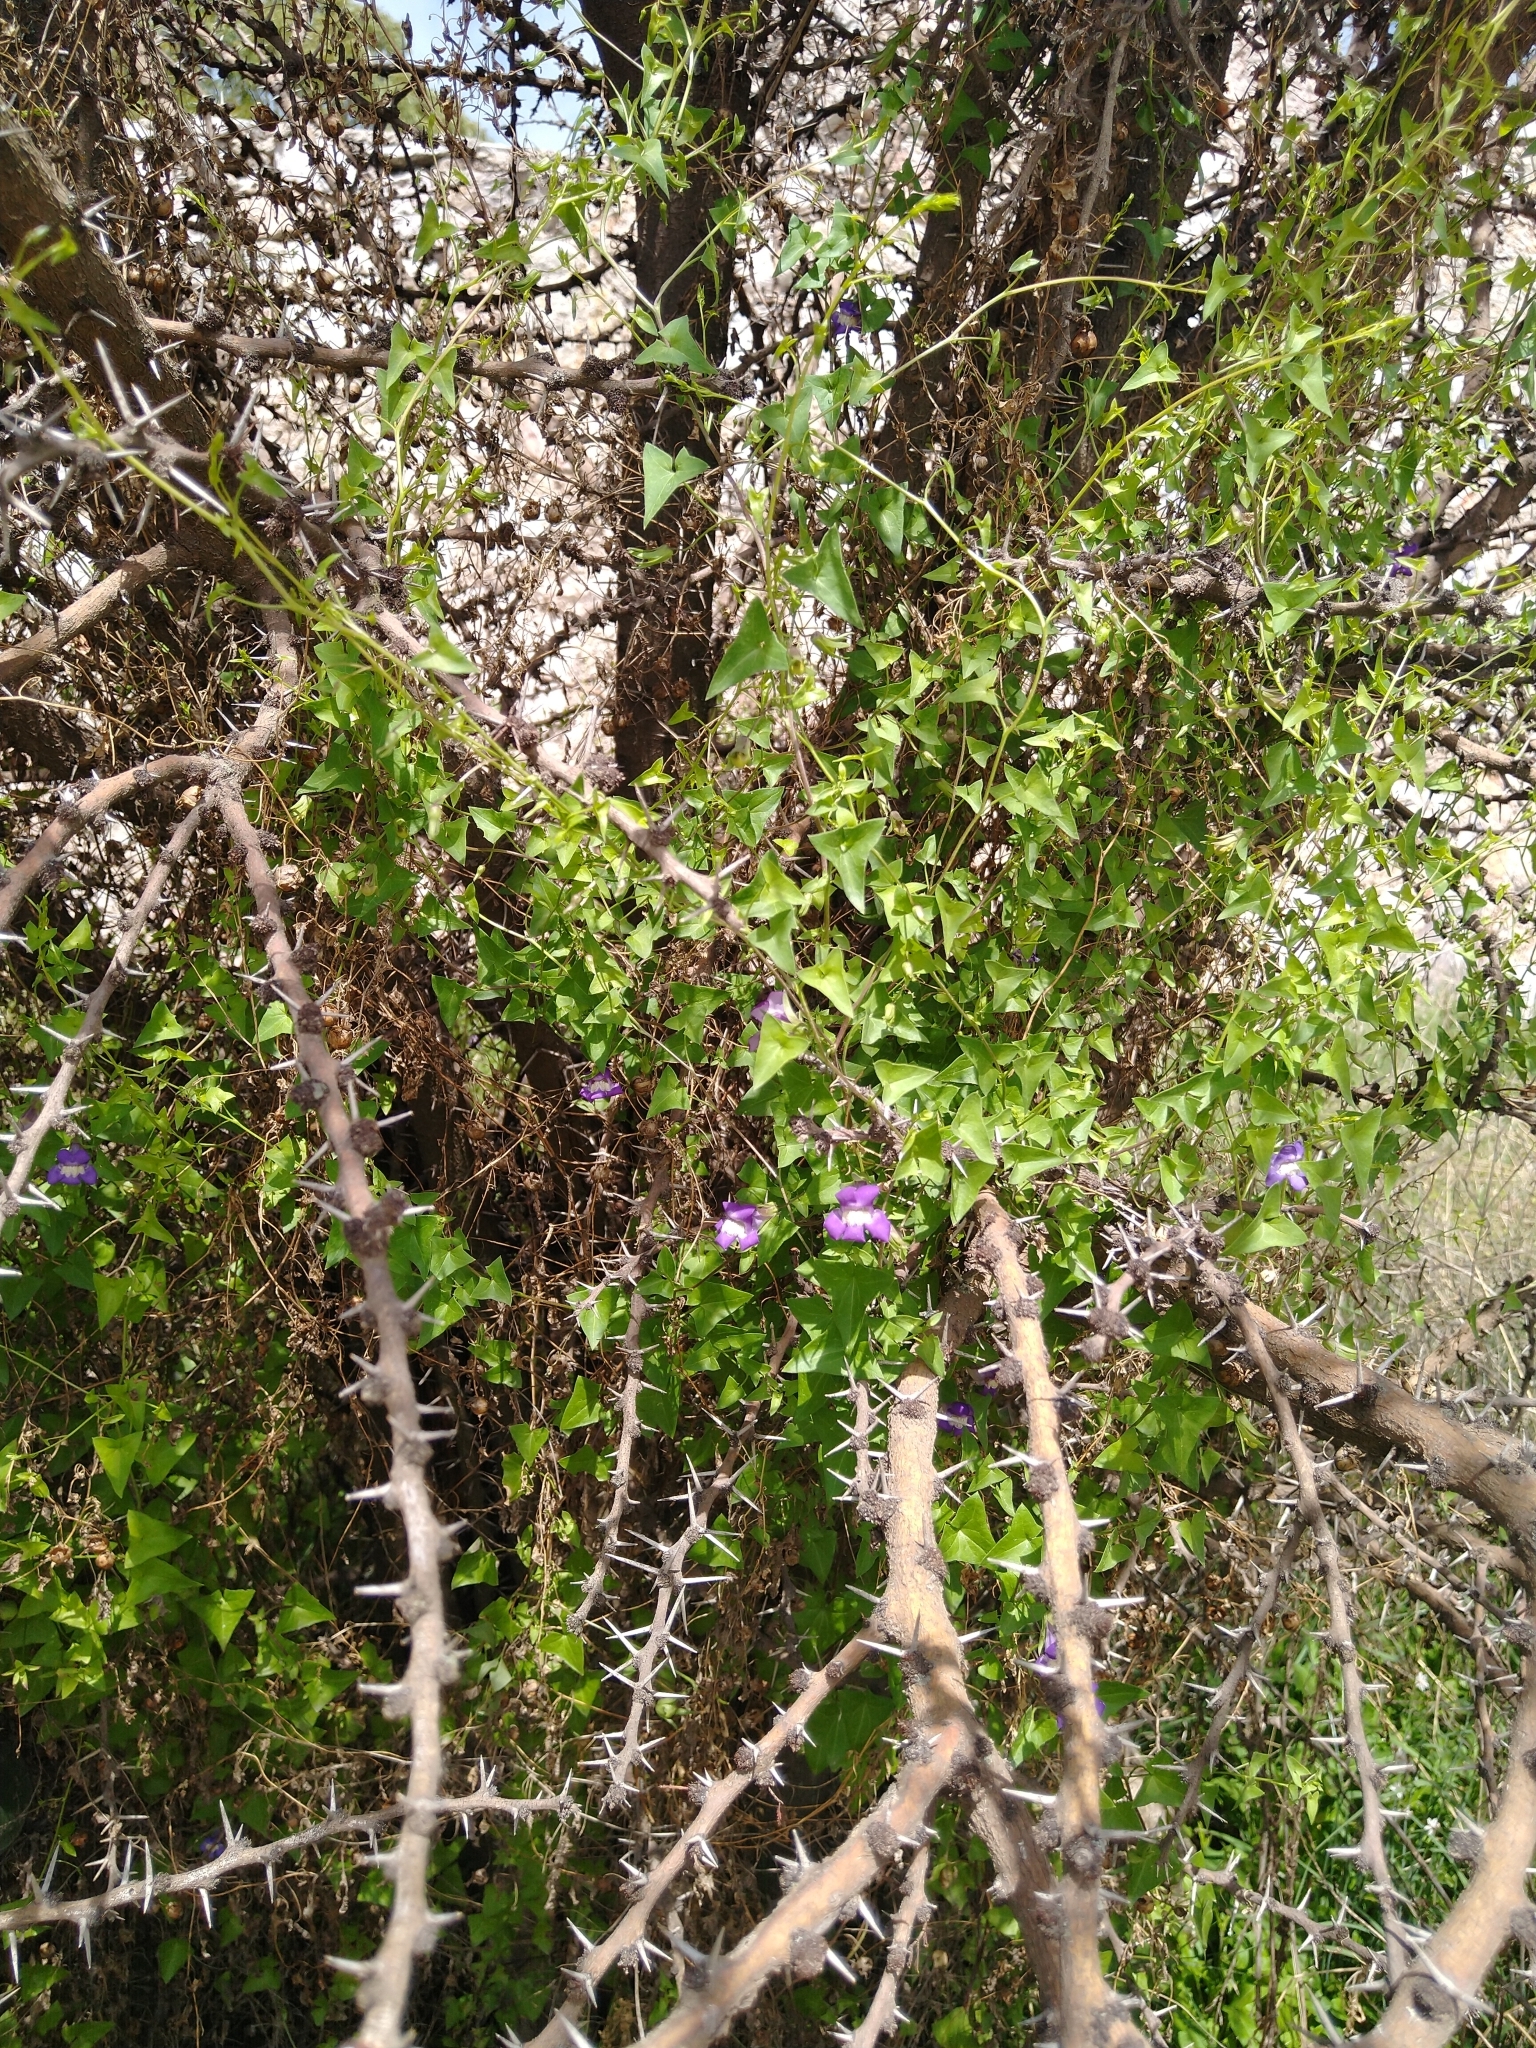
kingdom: Plantae
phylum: Tracheophyta
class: Magnoliopsida
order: Lamiales
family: Plantaginaceae
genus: Maurandella
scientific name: Maurandella antirrhiniflora
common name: Violet twining-snapdragon
